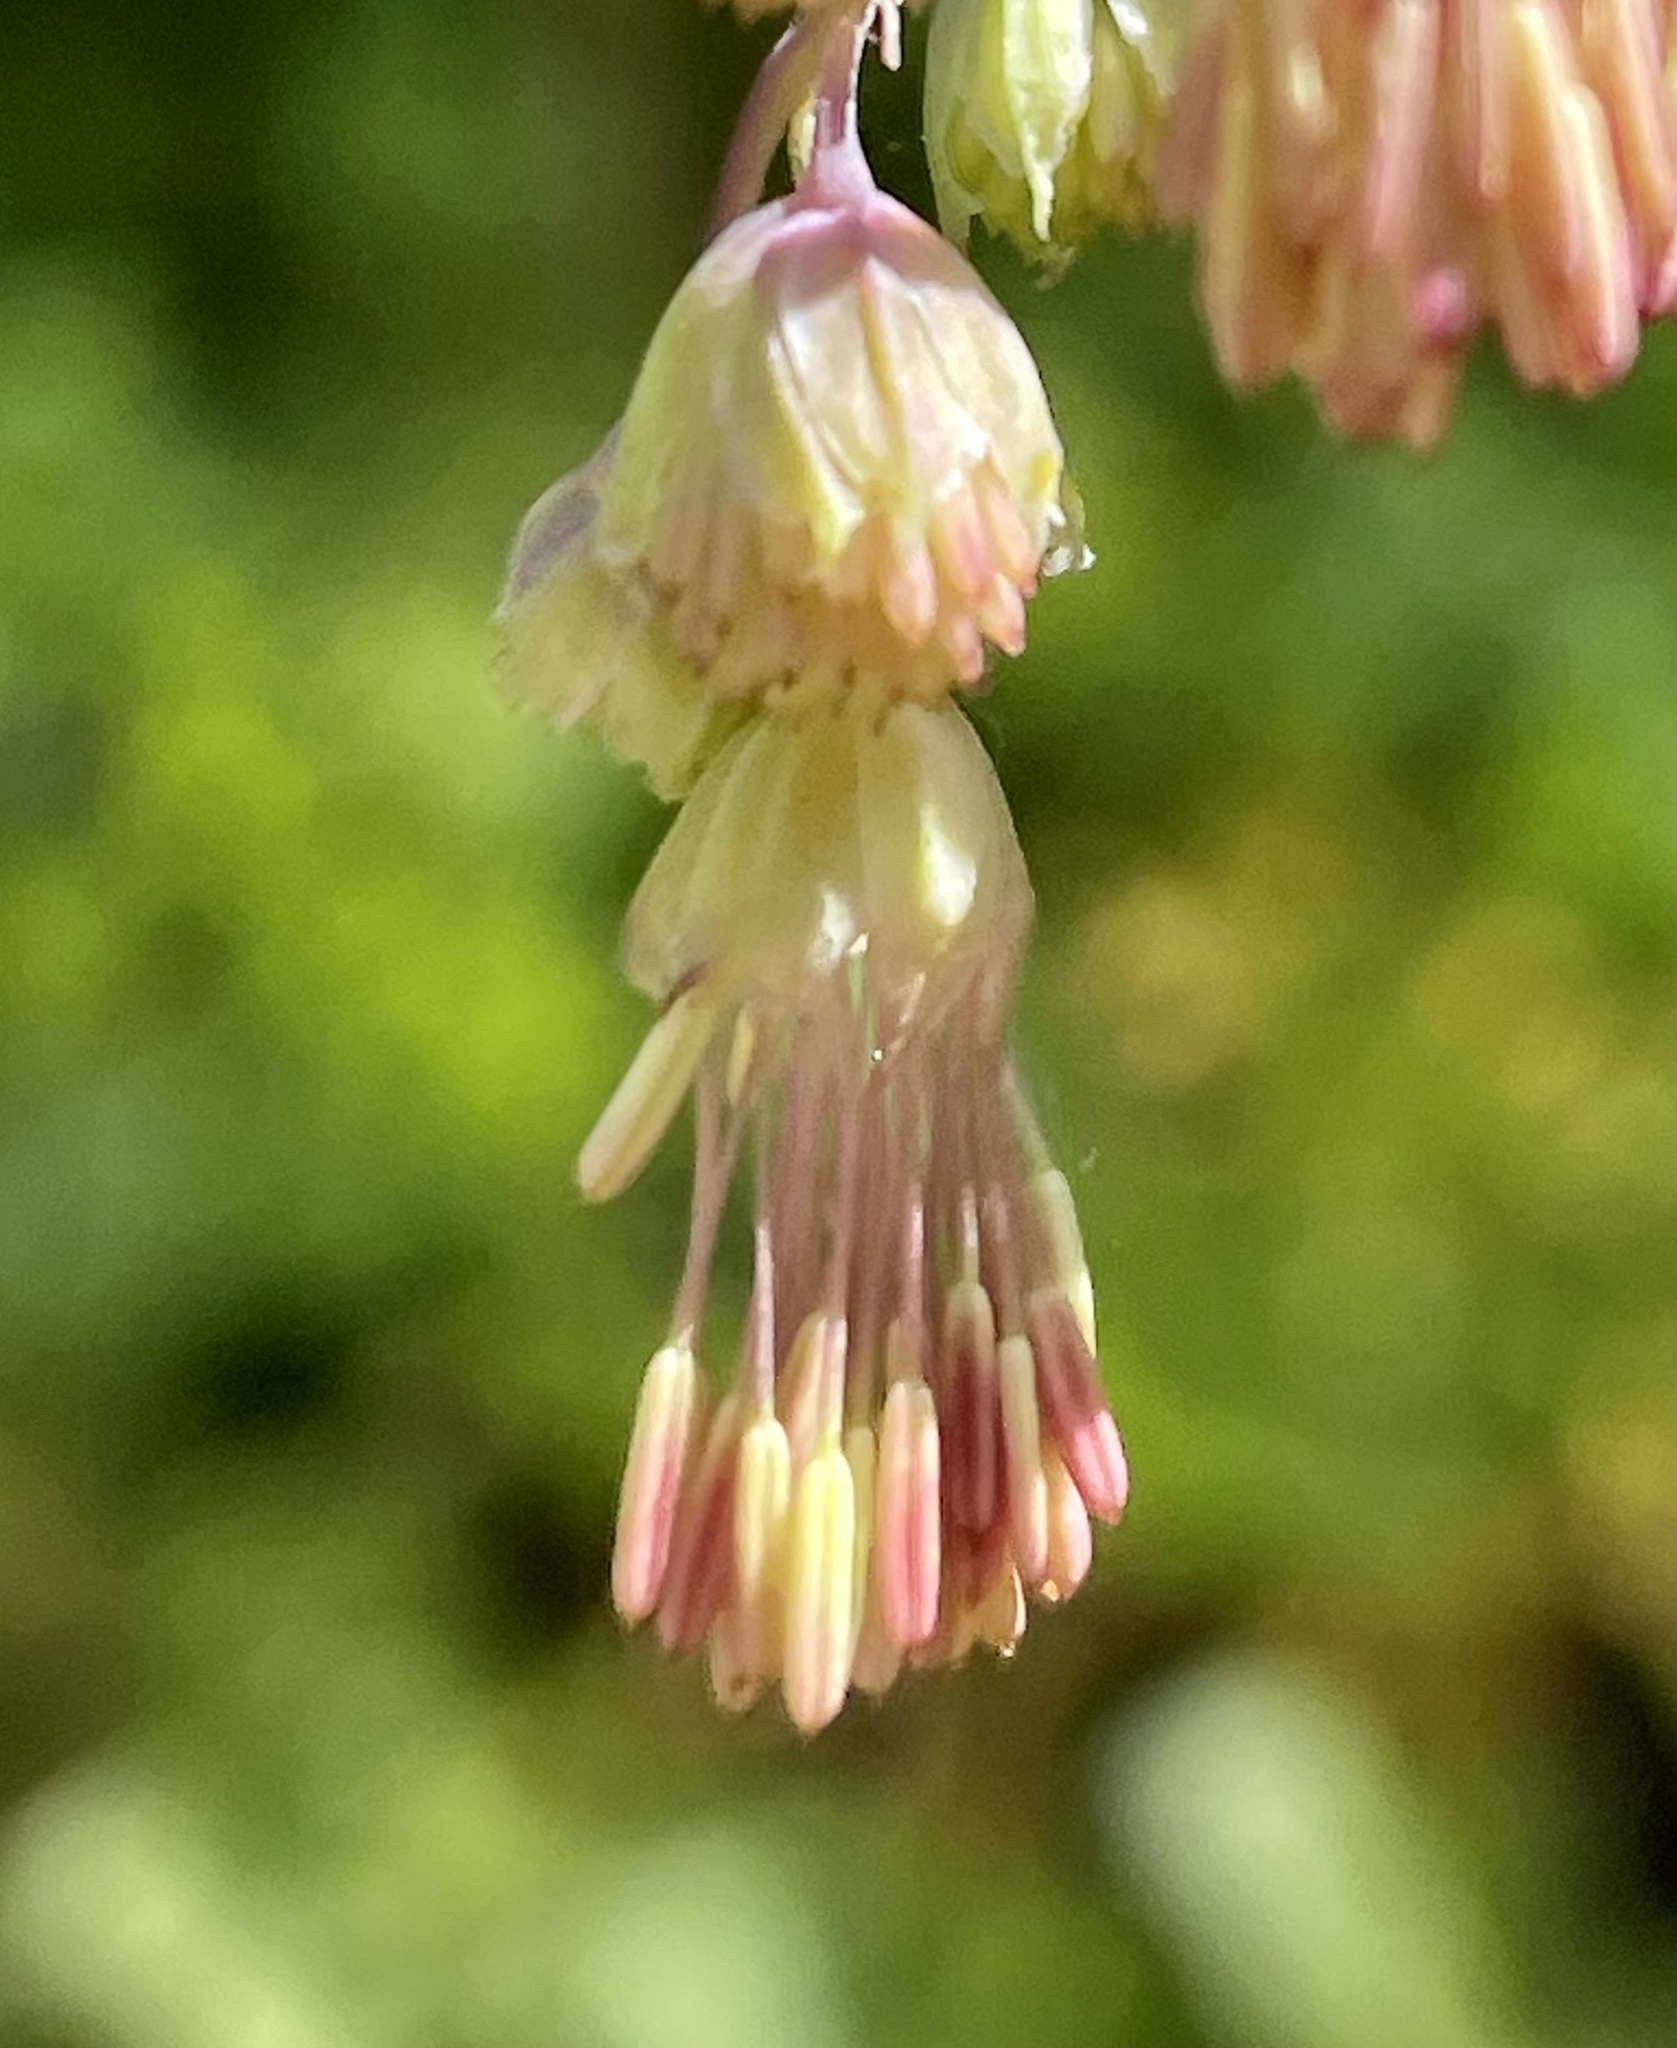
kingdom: Plantae
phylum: Tracheophyta
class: Magnoliopsida
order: Ranunculales
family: Ranunculaceae
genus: Thalictrum
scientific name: Thalictrum fendleri
